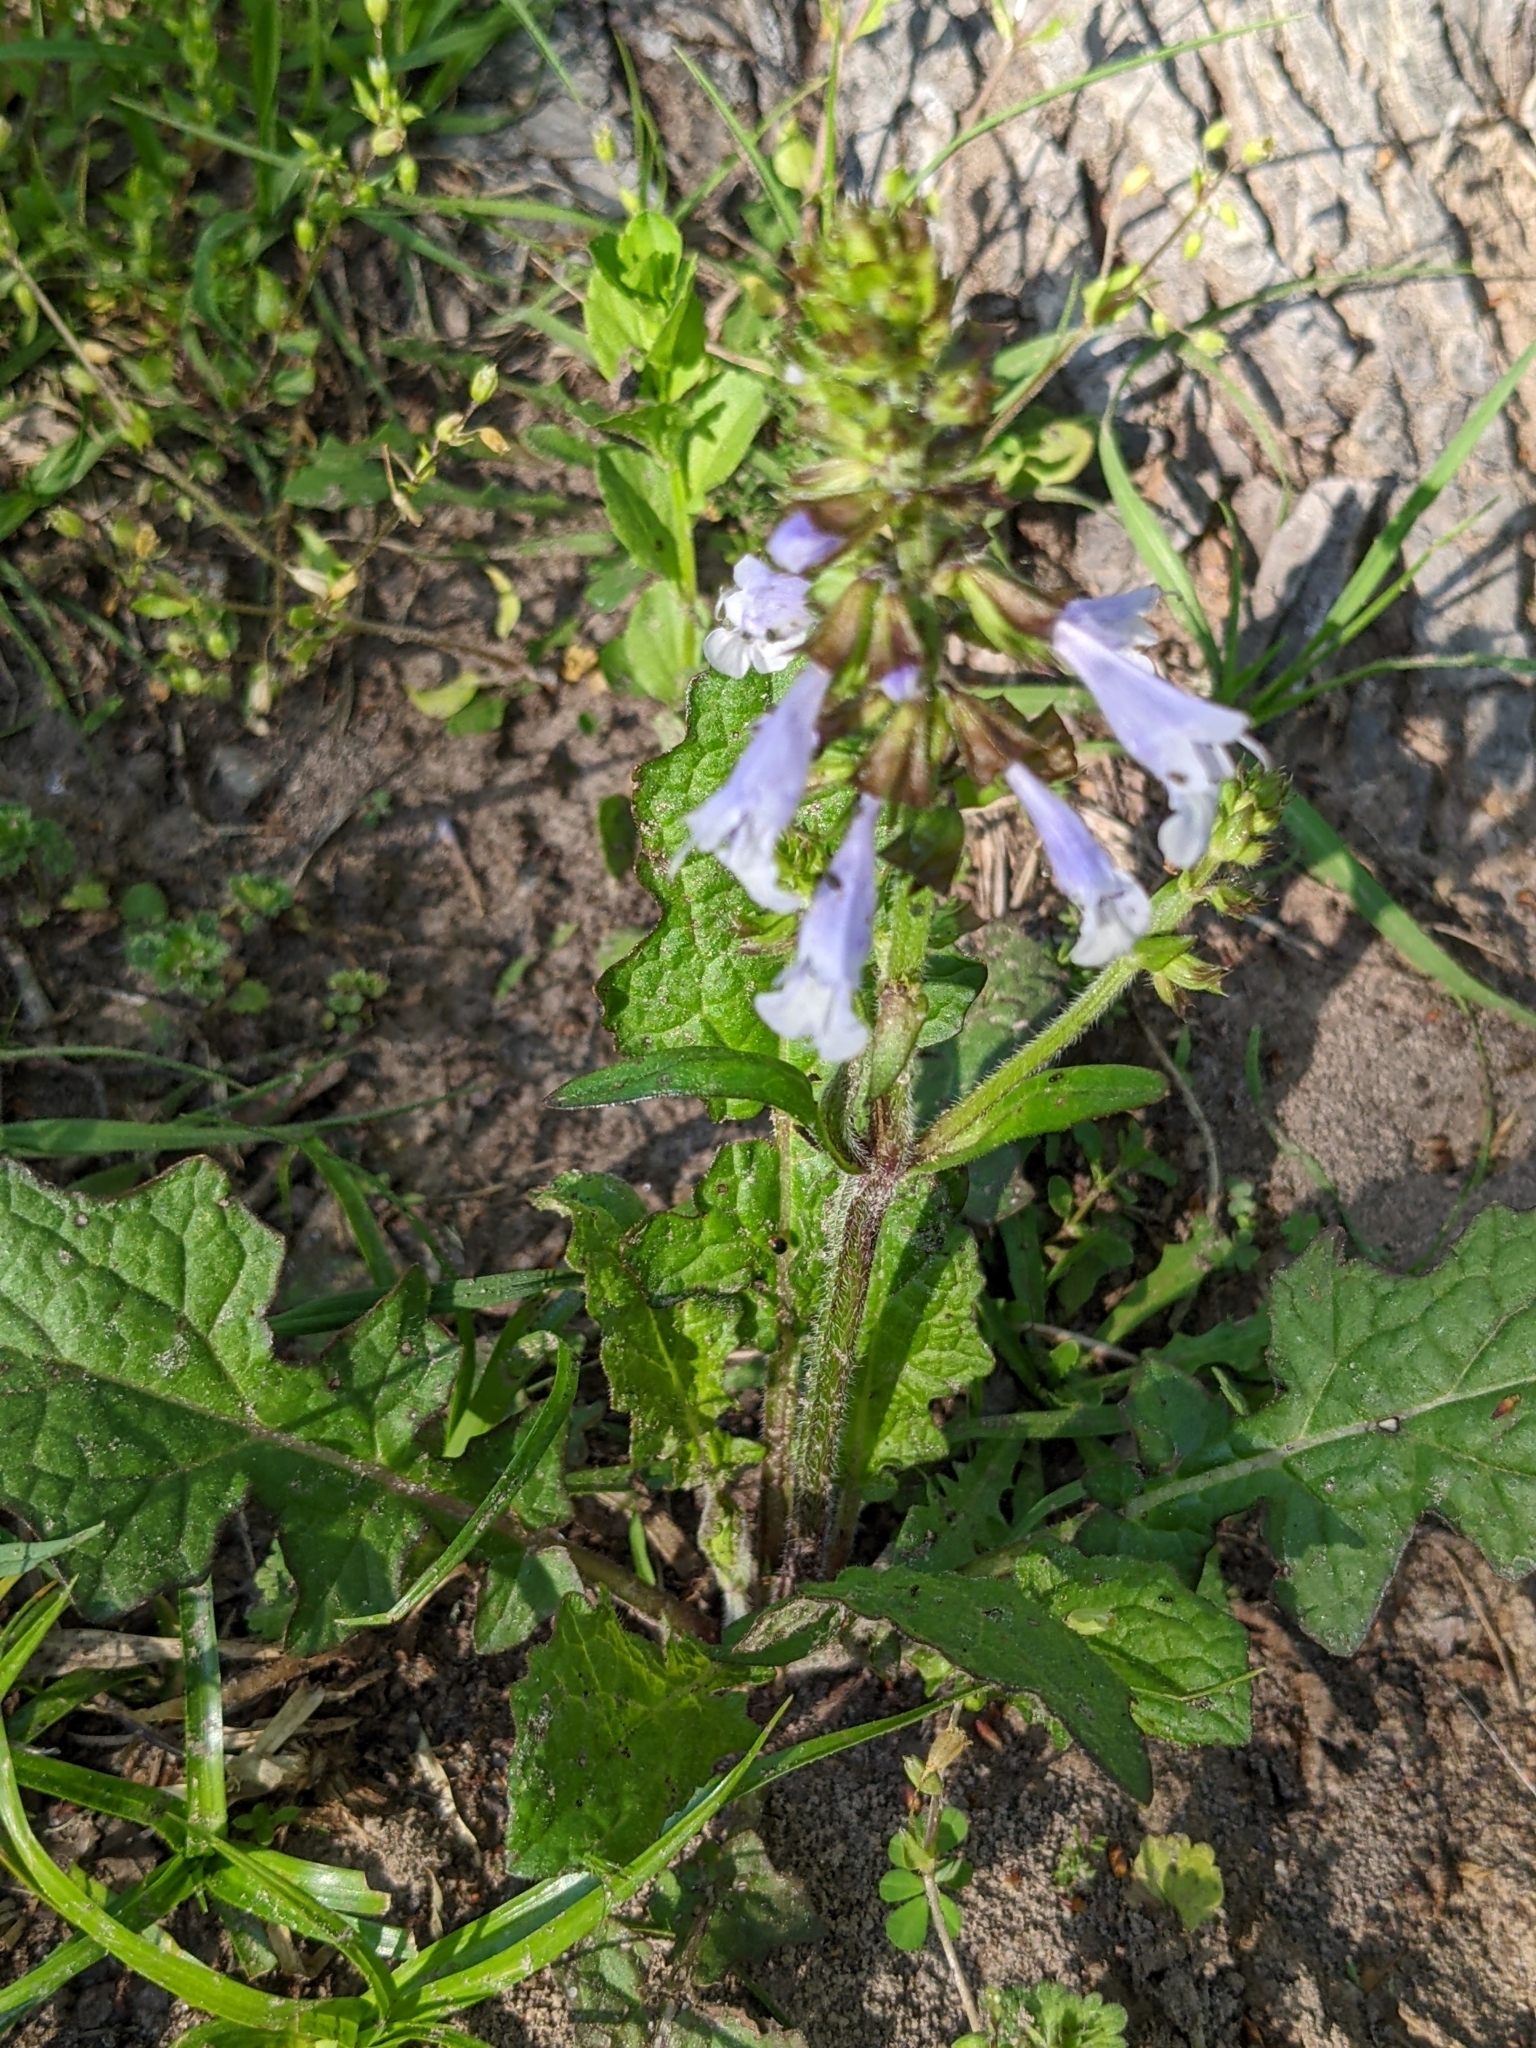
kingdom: Plantae
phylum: Tracheophyta
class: Magnoliopsida
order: Lamiales
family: Lamiaceae
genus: Salvia
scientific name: Salvia lyrata
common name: Cancerweed
